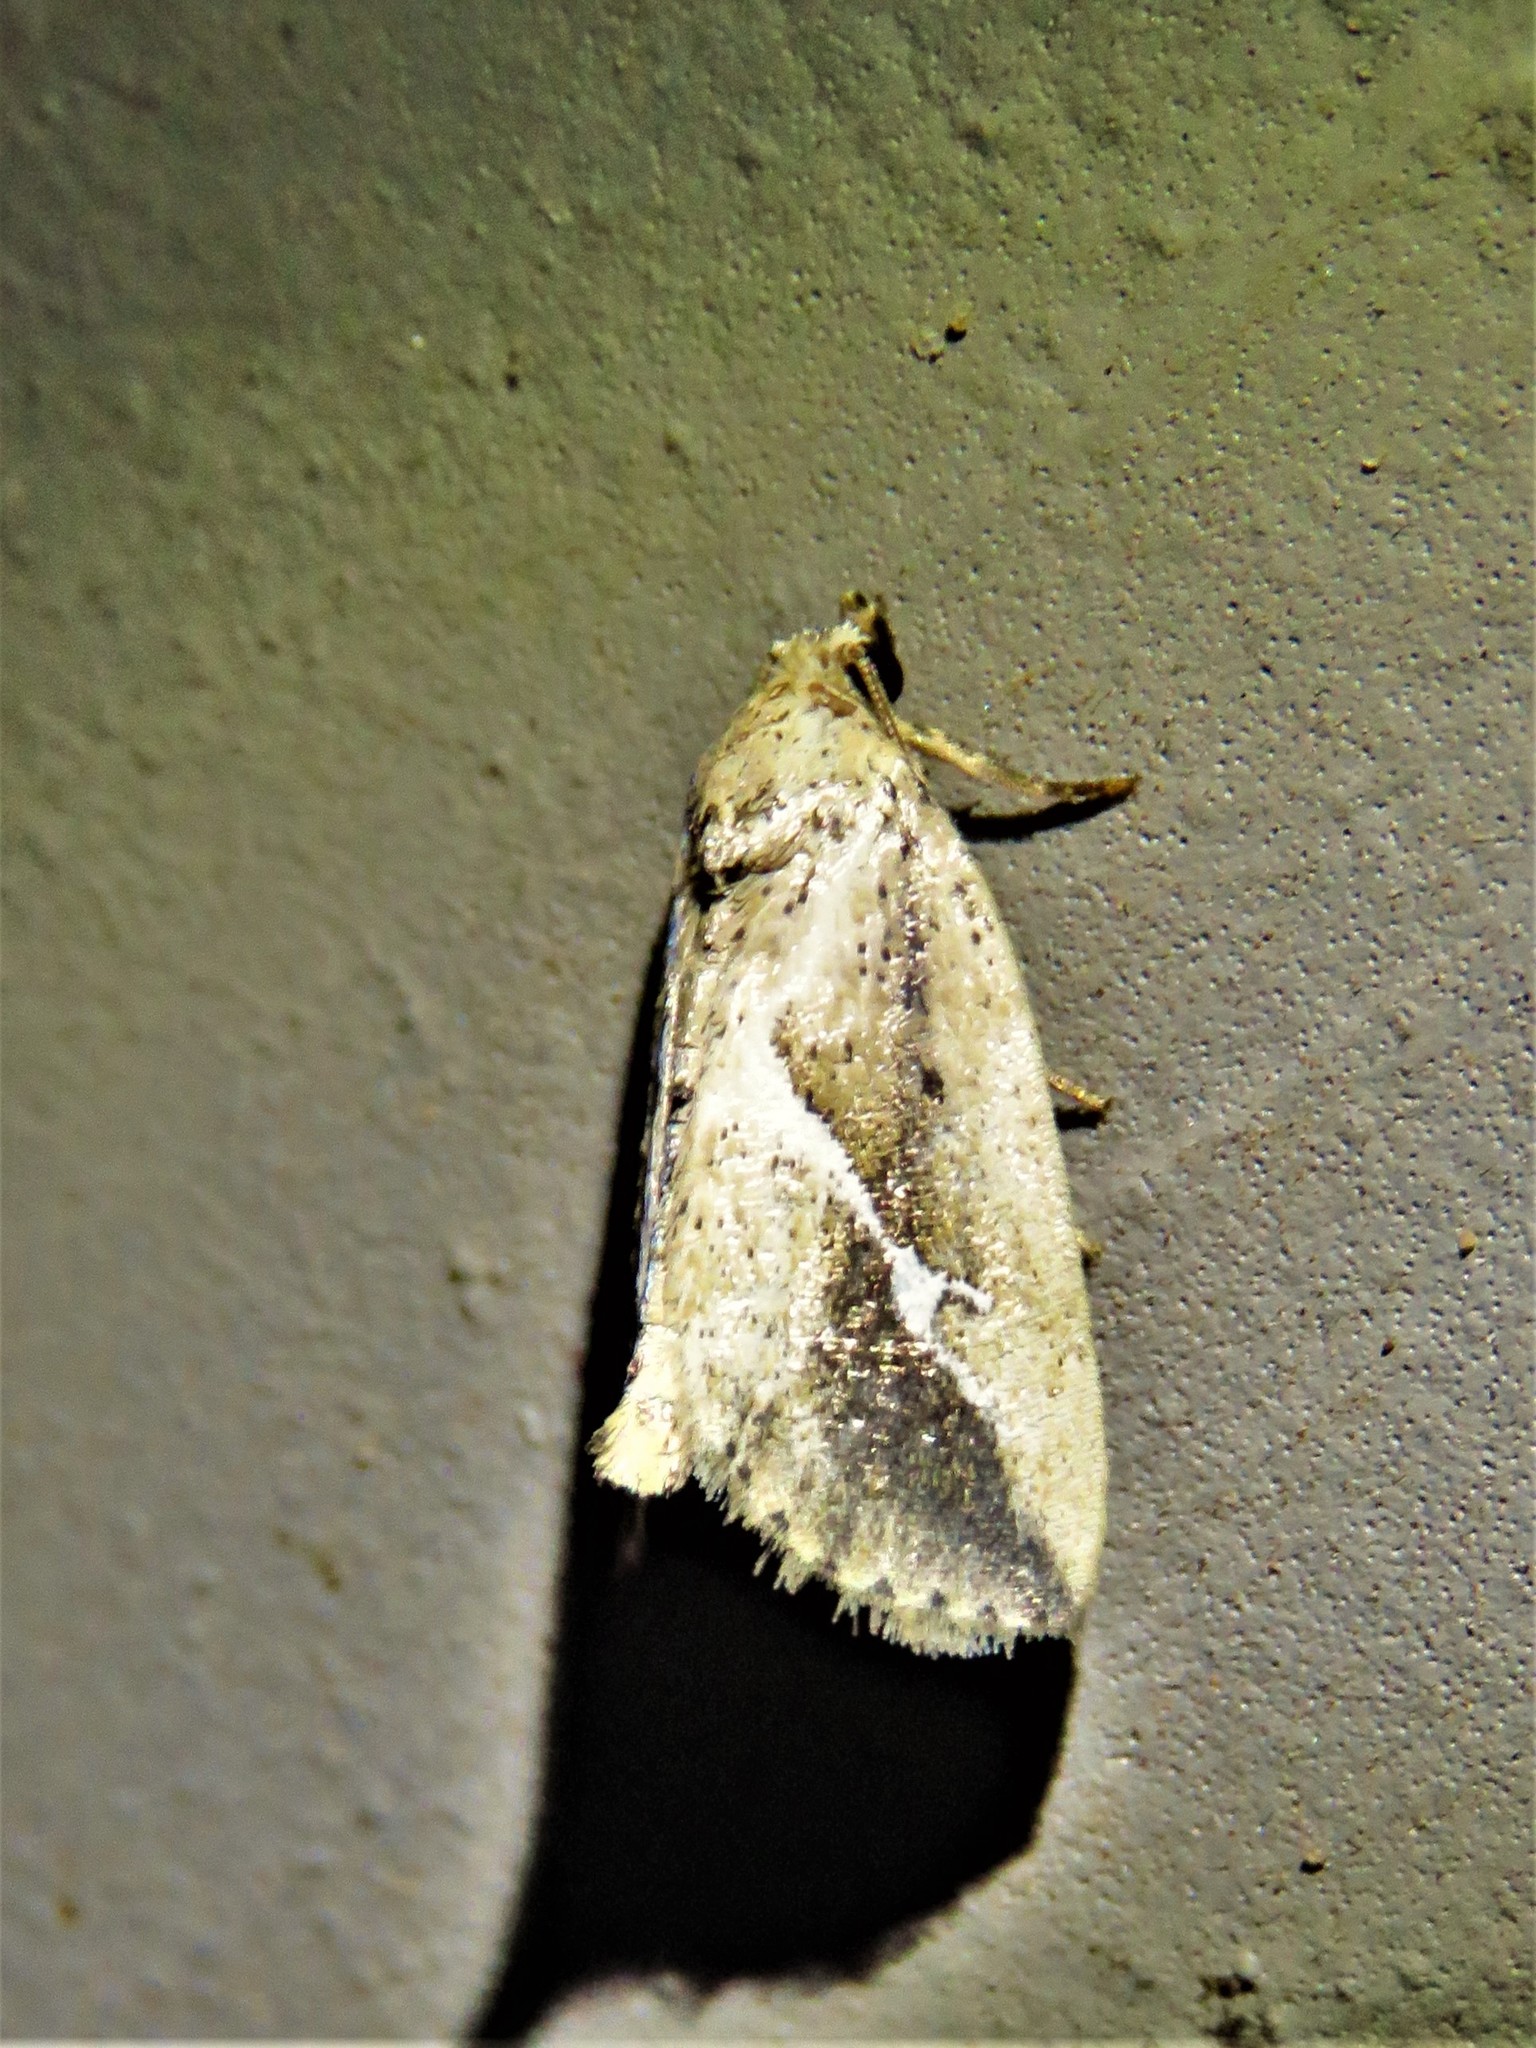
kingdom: Animalia
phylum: Arthropoda
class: Insecta
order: Lepidoptera
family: Noctuidae
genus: Argillophora
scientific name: Argillophora furcilla
